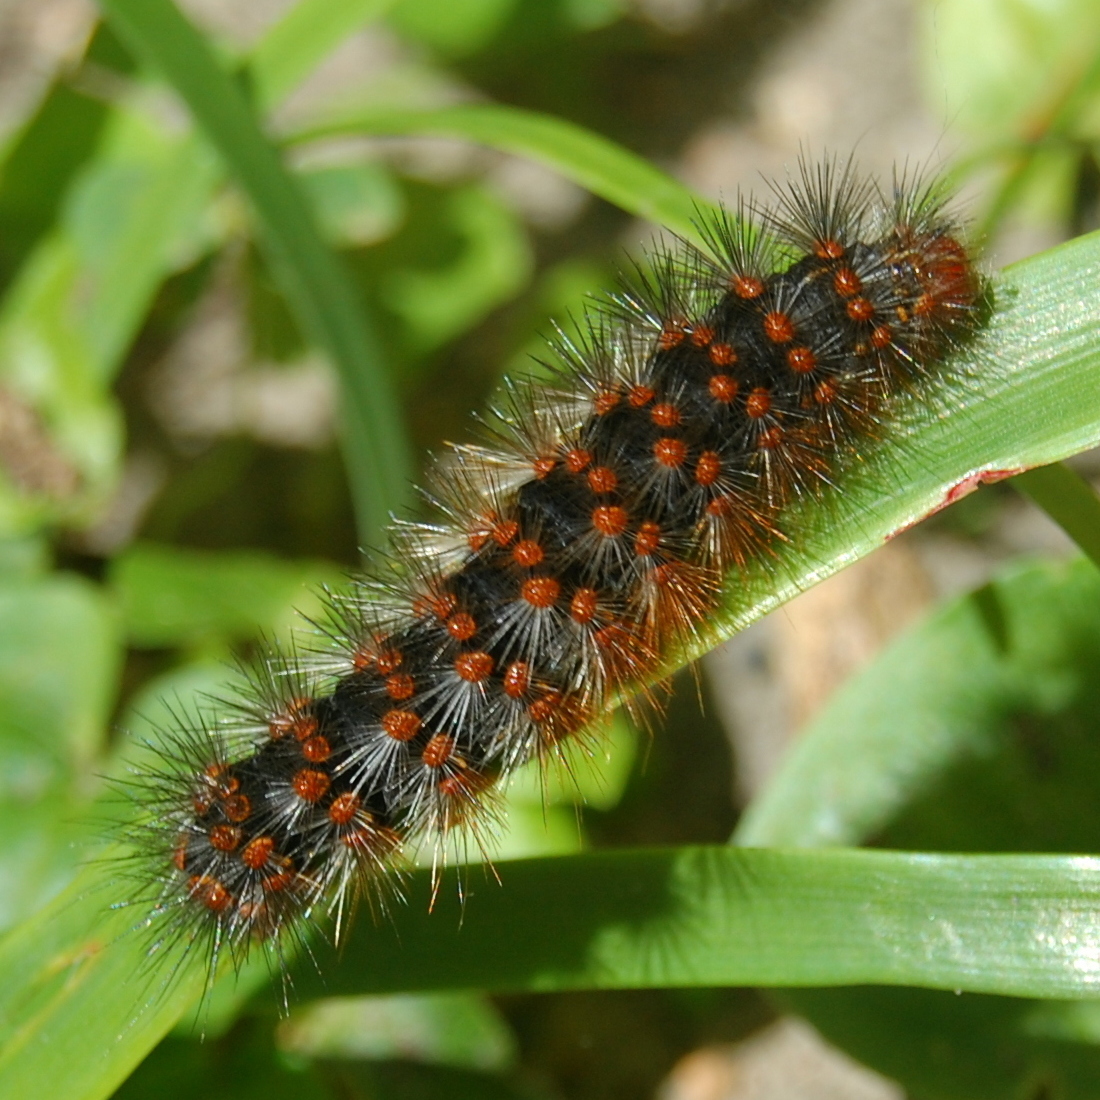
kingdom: Animalia
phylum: Arthropoda
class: Insecta
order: Lepidoptera
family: Erebidae
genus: Hypercompe
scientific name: Hypercompe indecisa
